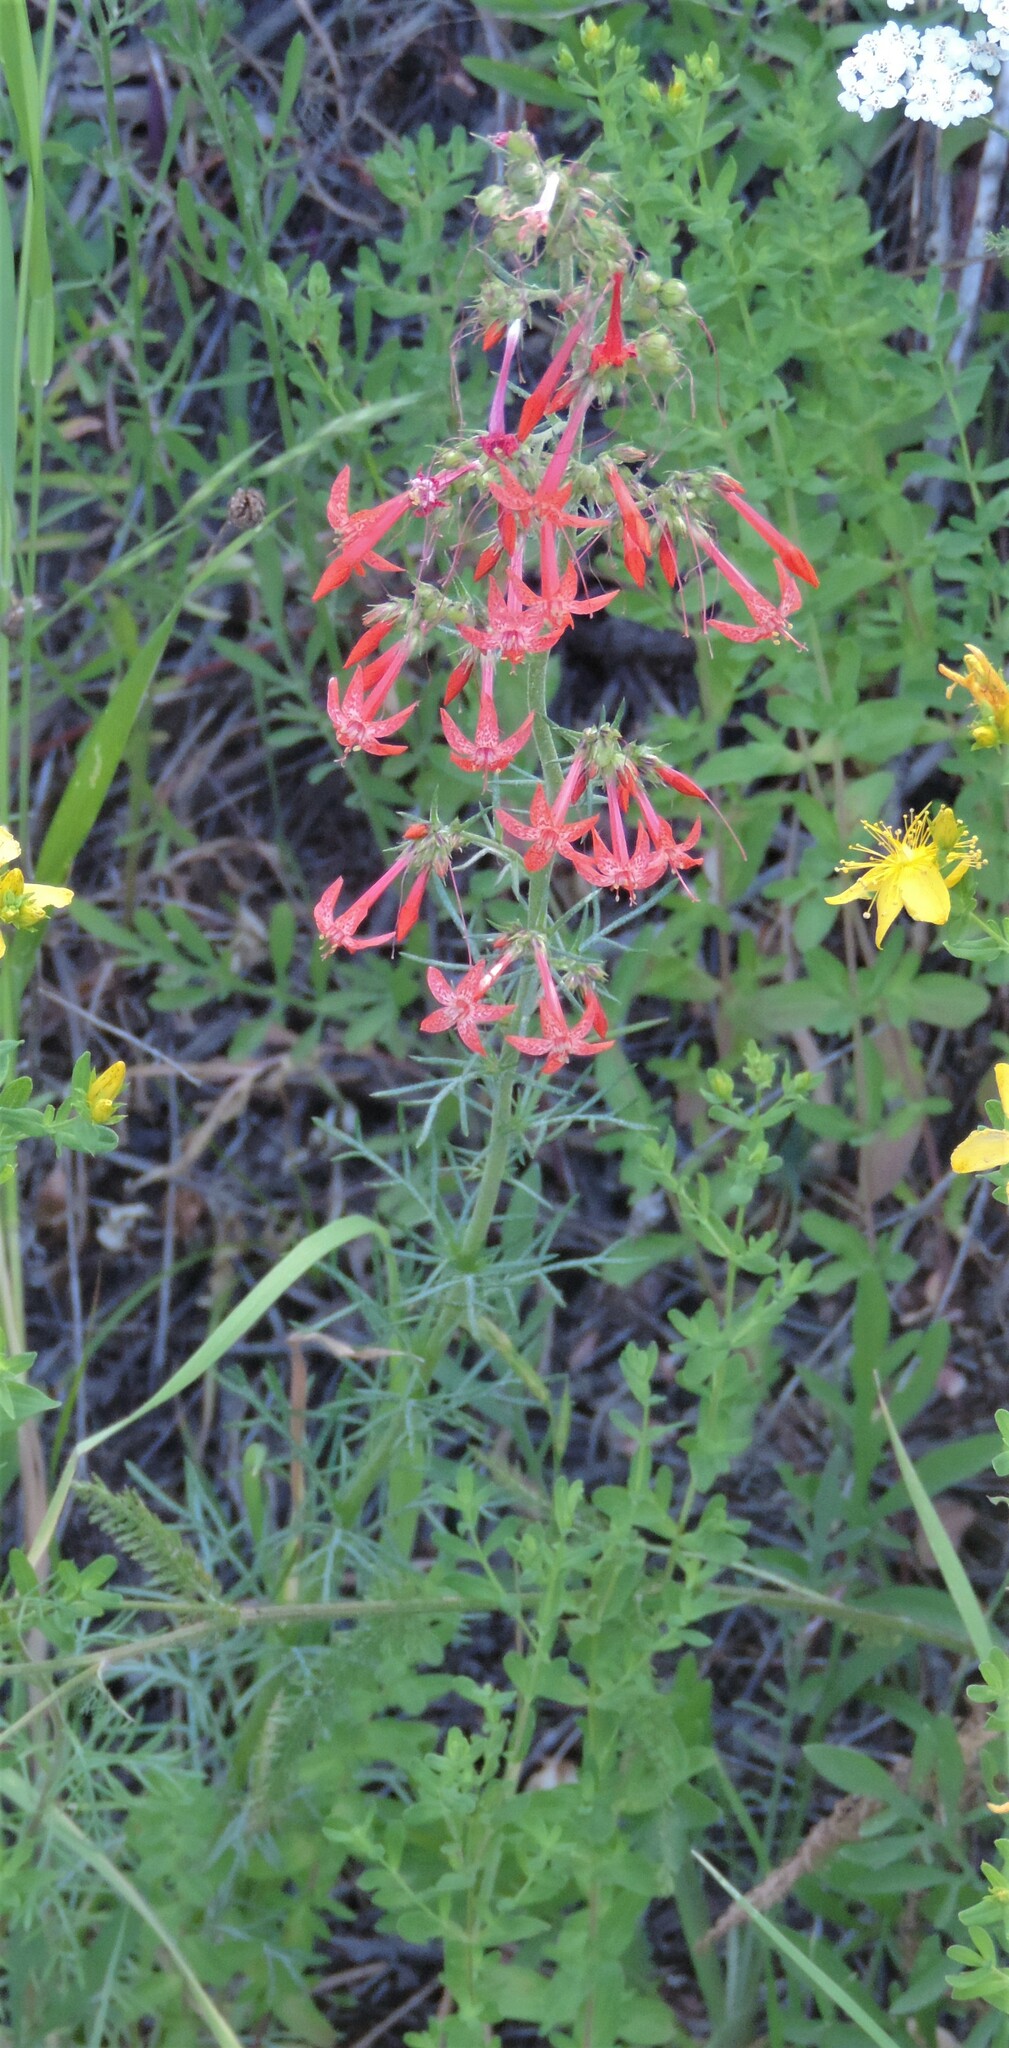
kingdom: Plantae
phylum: Tracheophyta
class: Magnoliopsida
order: Ericales
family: Polemoniaceae
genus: Ipomopsis
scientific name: Ipomopsis aggregata
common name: Scarlet gilia
